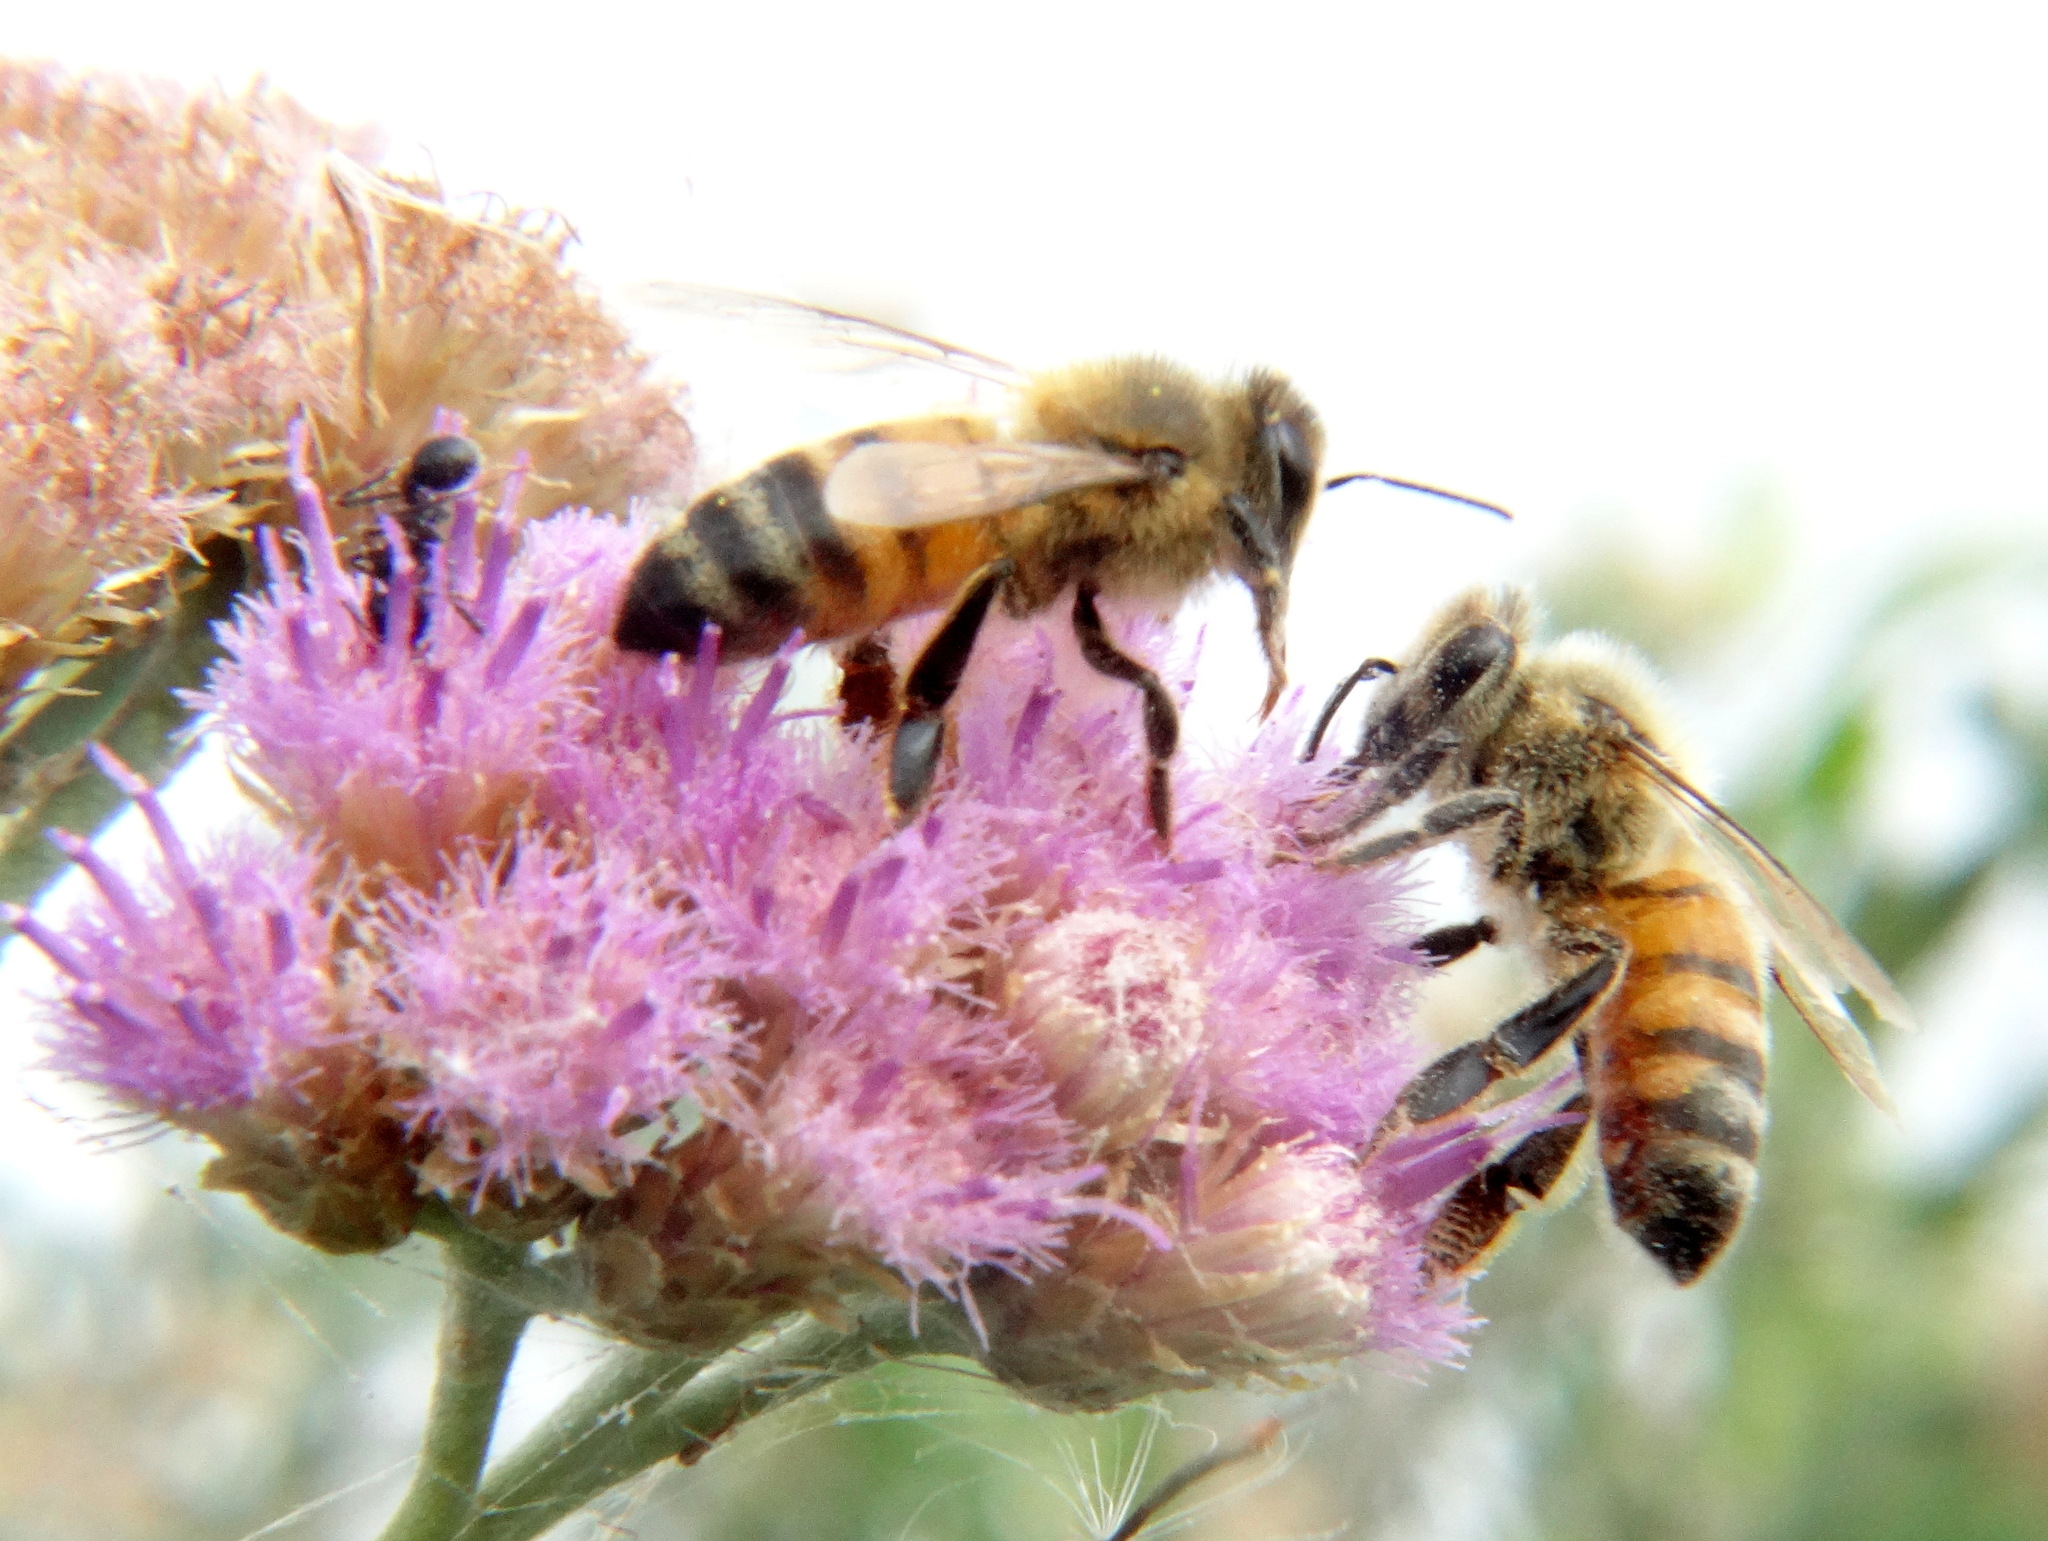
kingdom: Animalia
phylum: Arthropoda
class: Insecta
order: Hymenoptera
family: Apidae
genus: Apis
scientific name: Apis mellifera
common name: Honey bee
